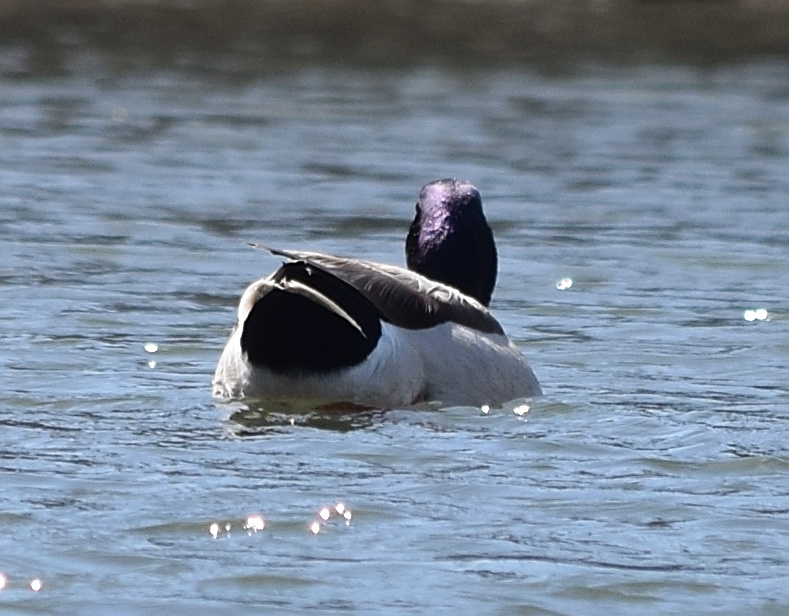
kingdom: Animalia
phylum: Chordata
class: Aves
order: Anseriformes
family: Anatidae
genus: Anas
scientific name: Anas platyrhynchos
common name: Mallard
